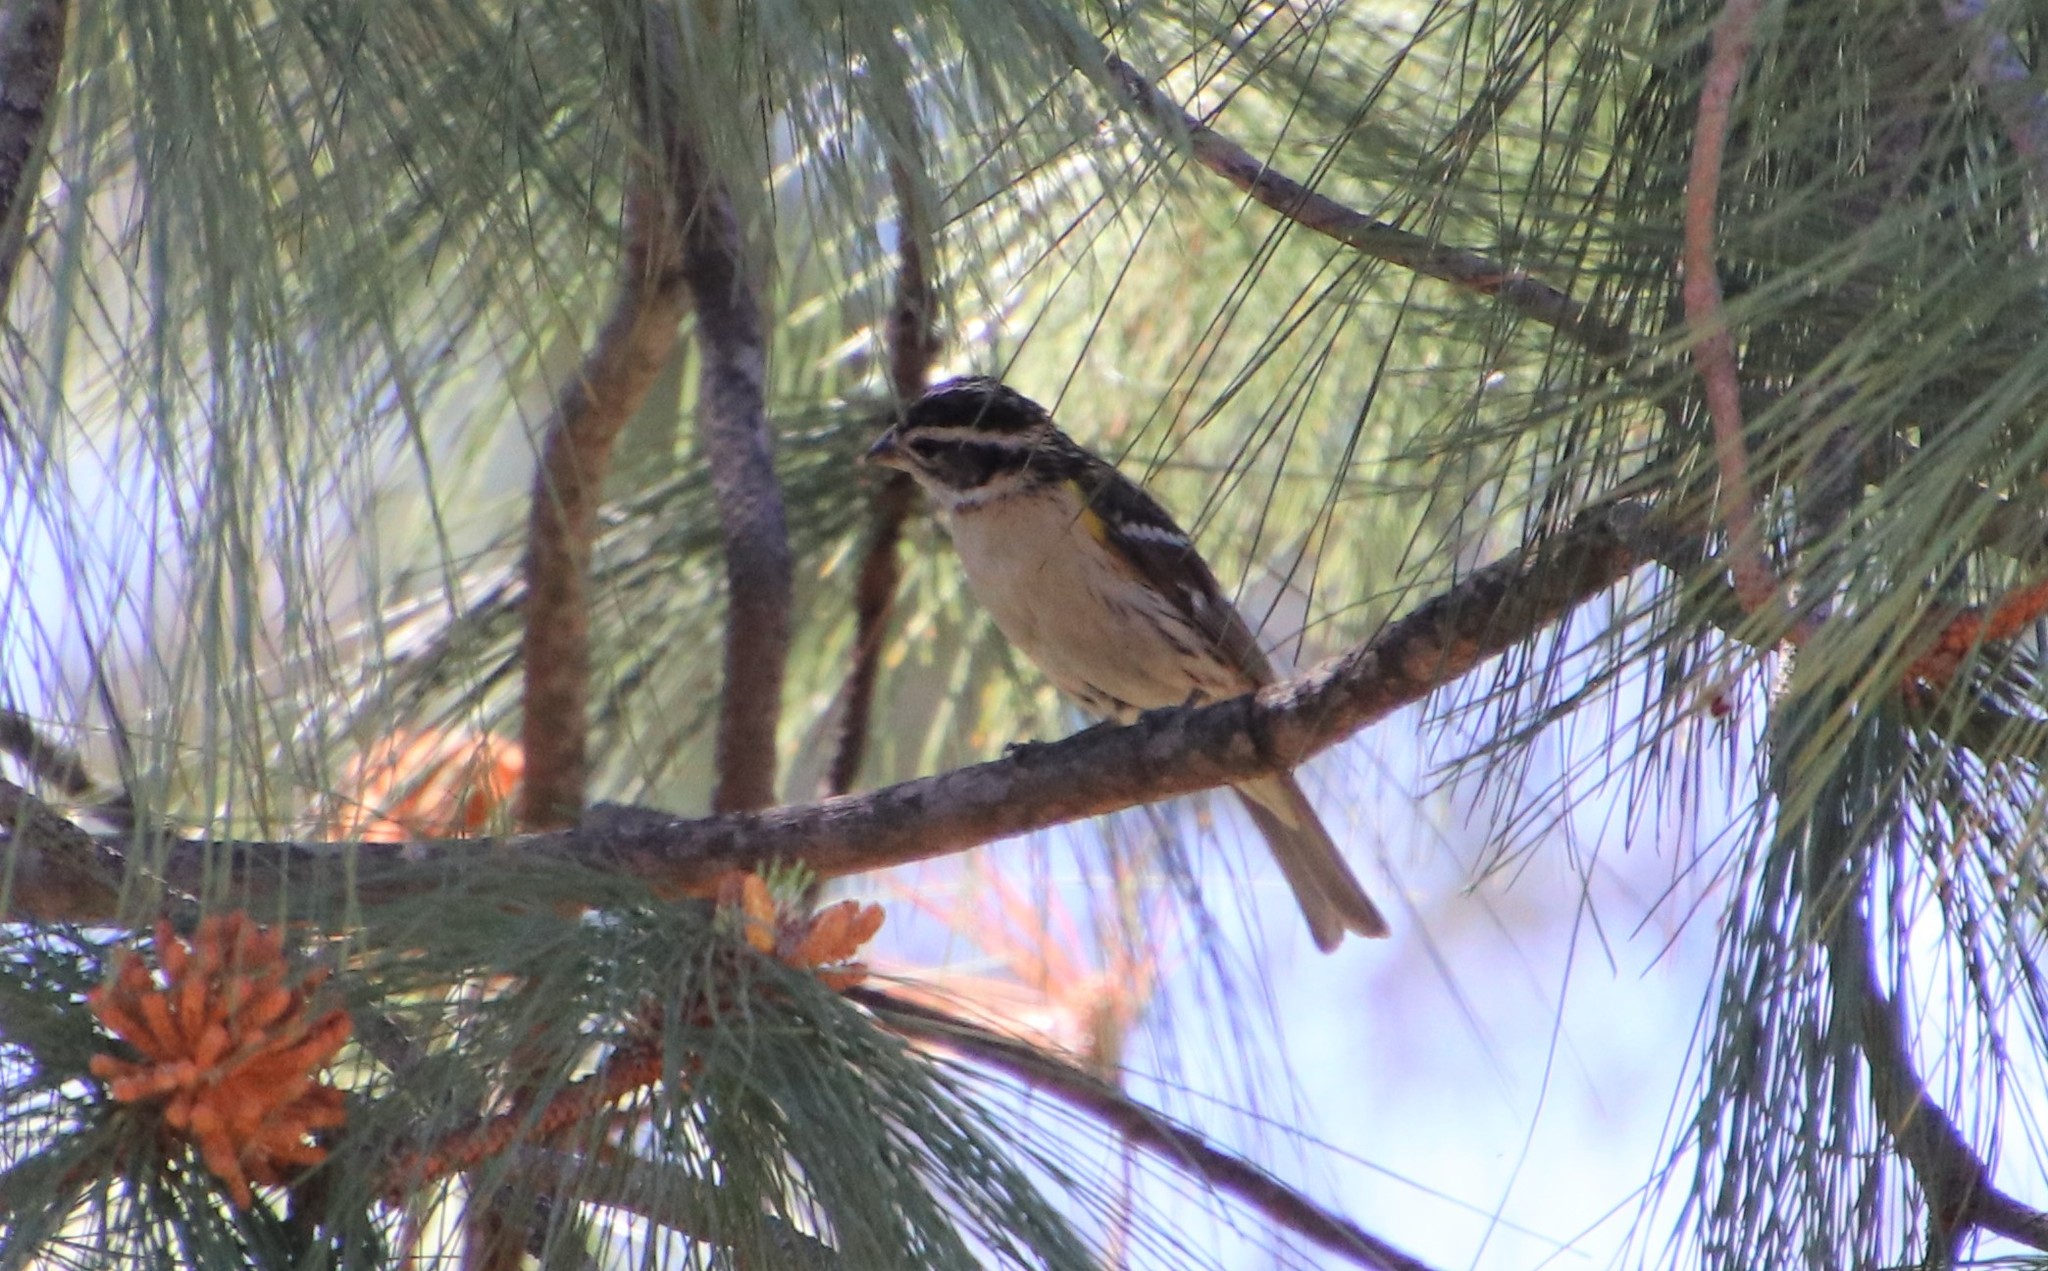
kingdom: Animalia
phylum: Chordata
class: Aves
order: Passeriformes
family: Cardinalidae
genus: Pheucticus
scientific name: Pheucticus melanocephalus
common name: Black-headed grosbeak
